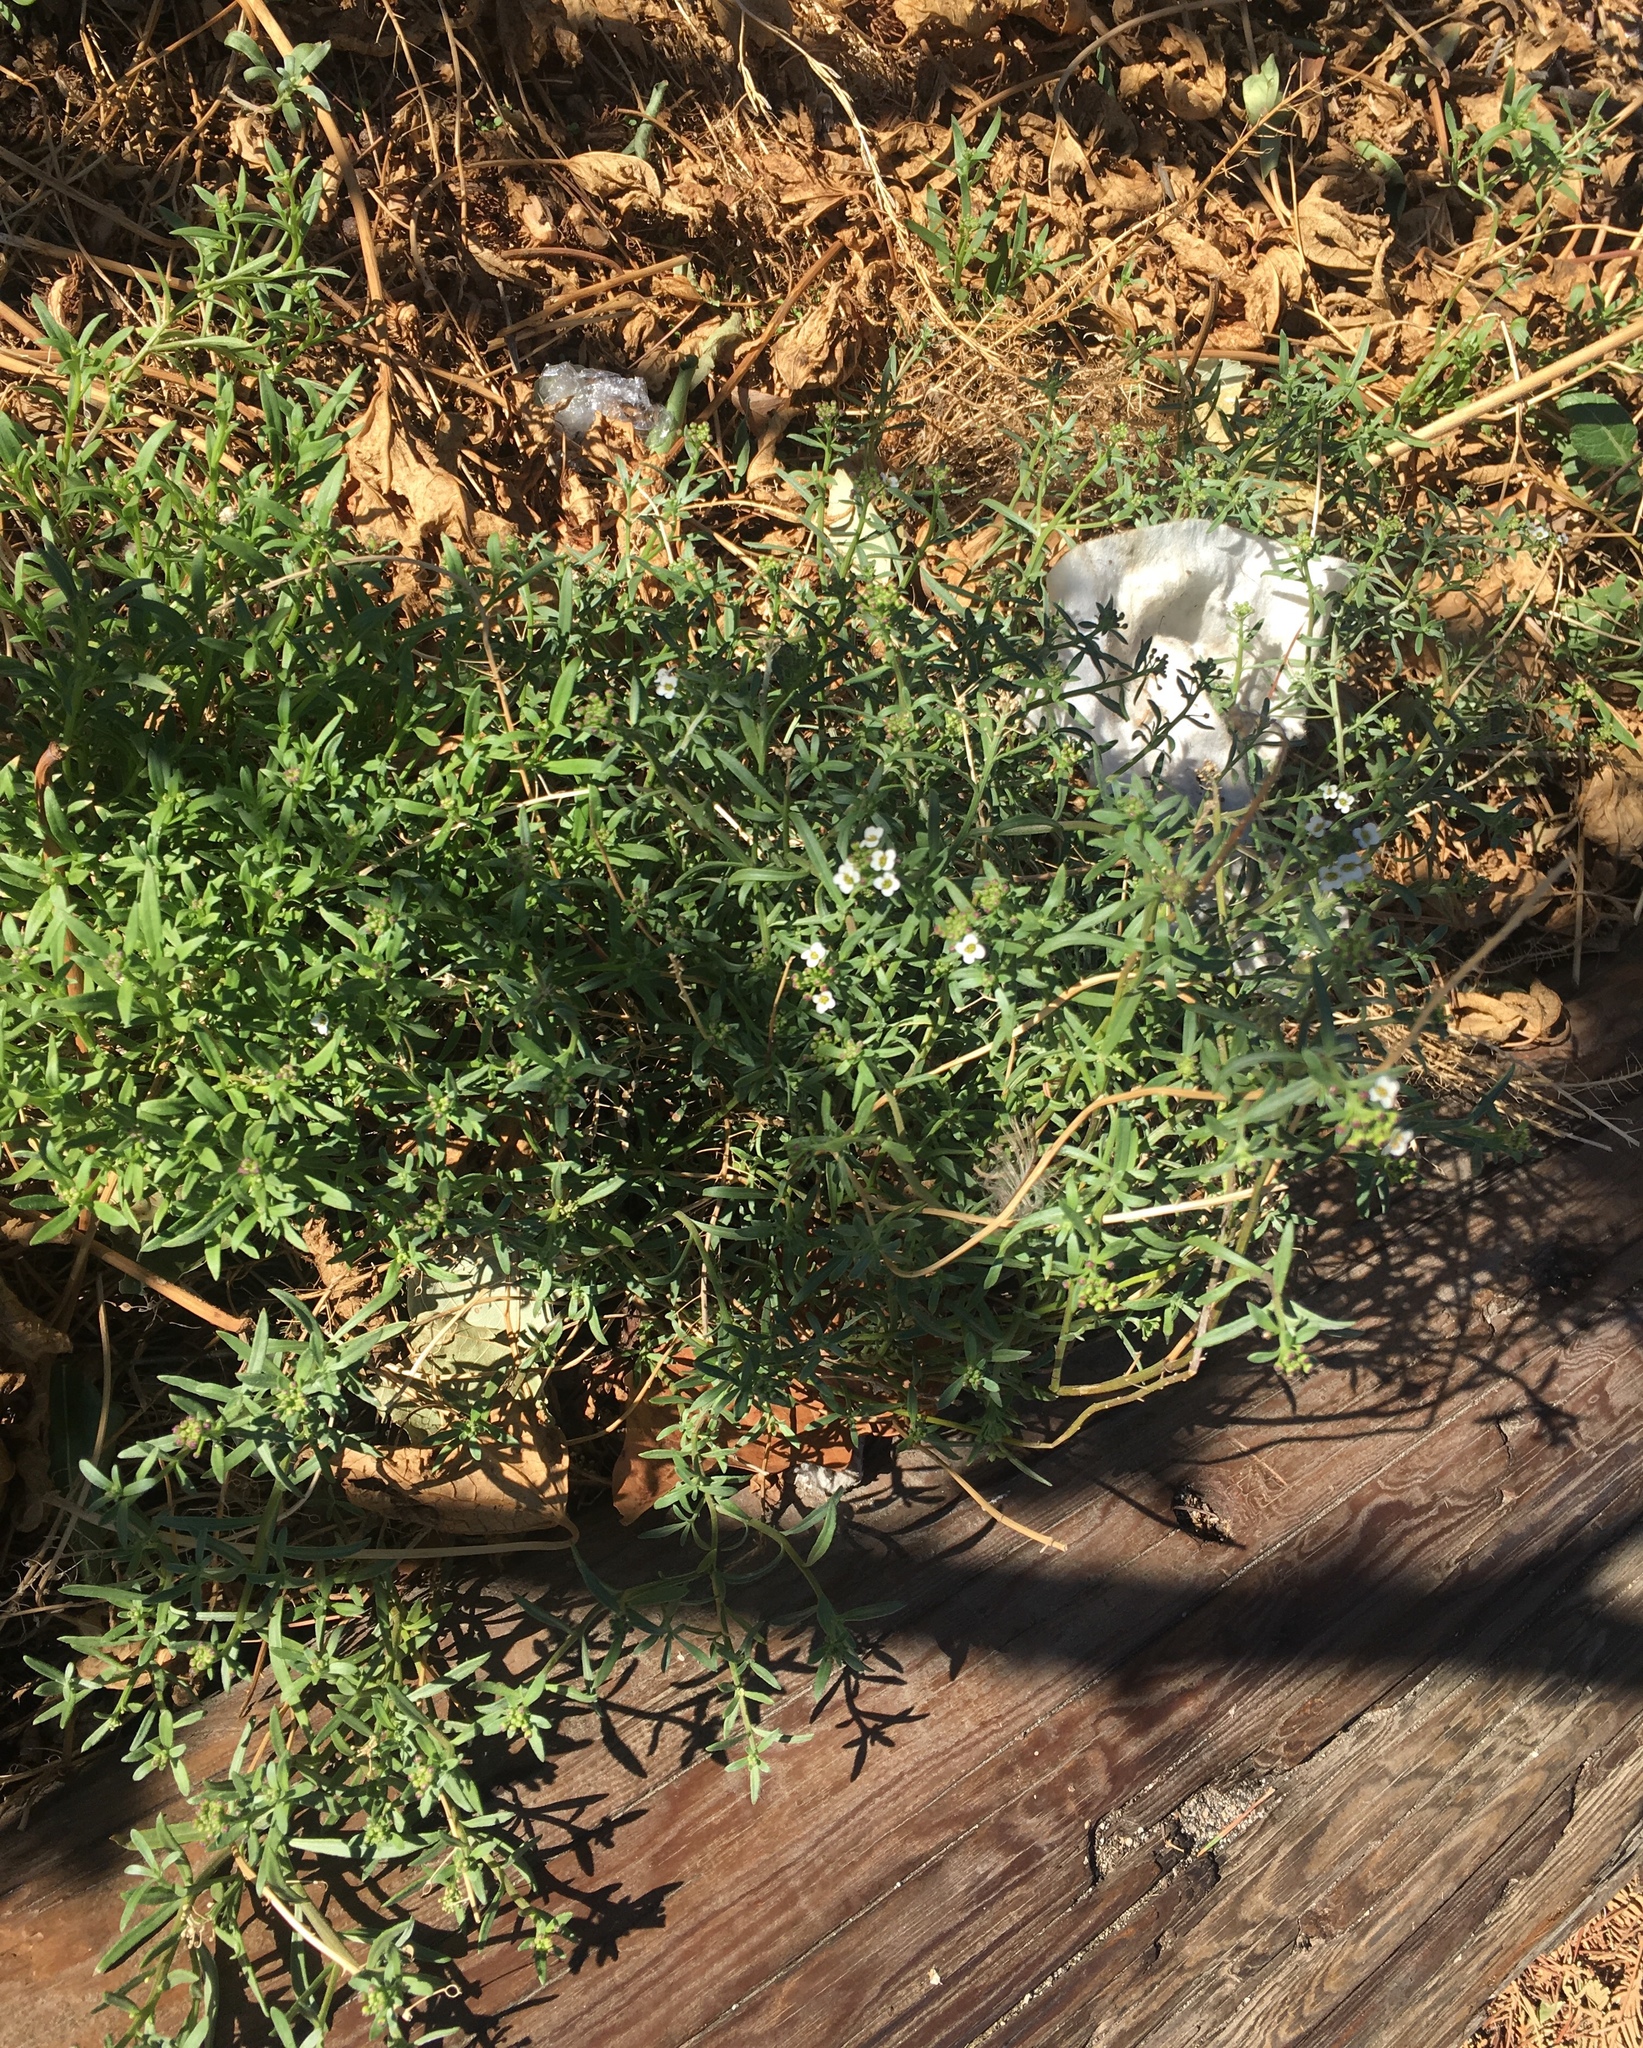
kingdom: Plantae
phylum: Tracheophyta
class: Magnoliopsida
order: Brassicales
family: Brassicaceae
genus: Lobularia
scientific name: Lobularia maritima
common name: Sweet alison
